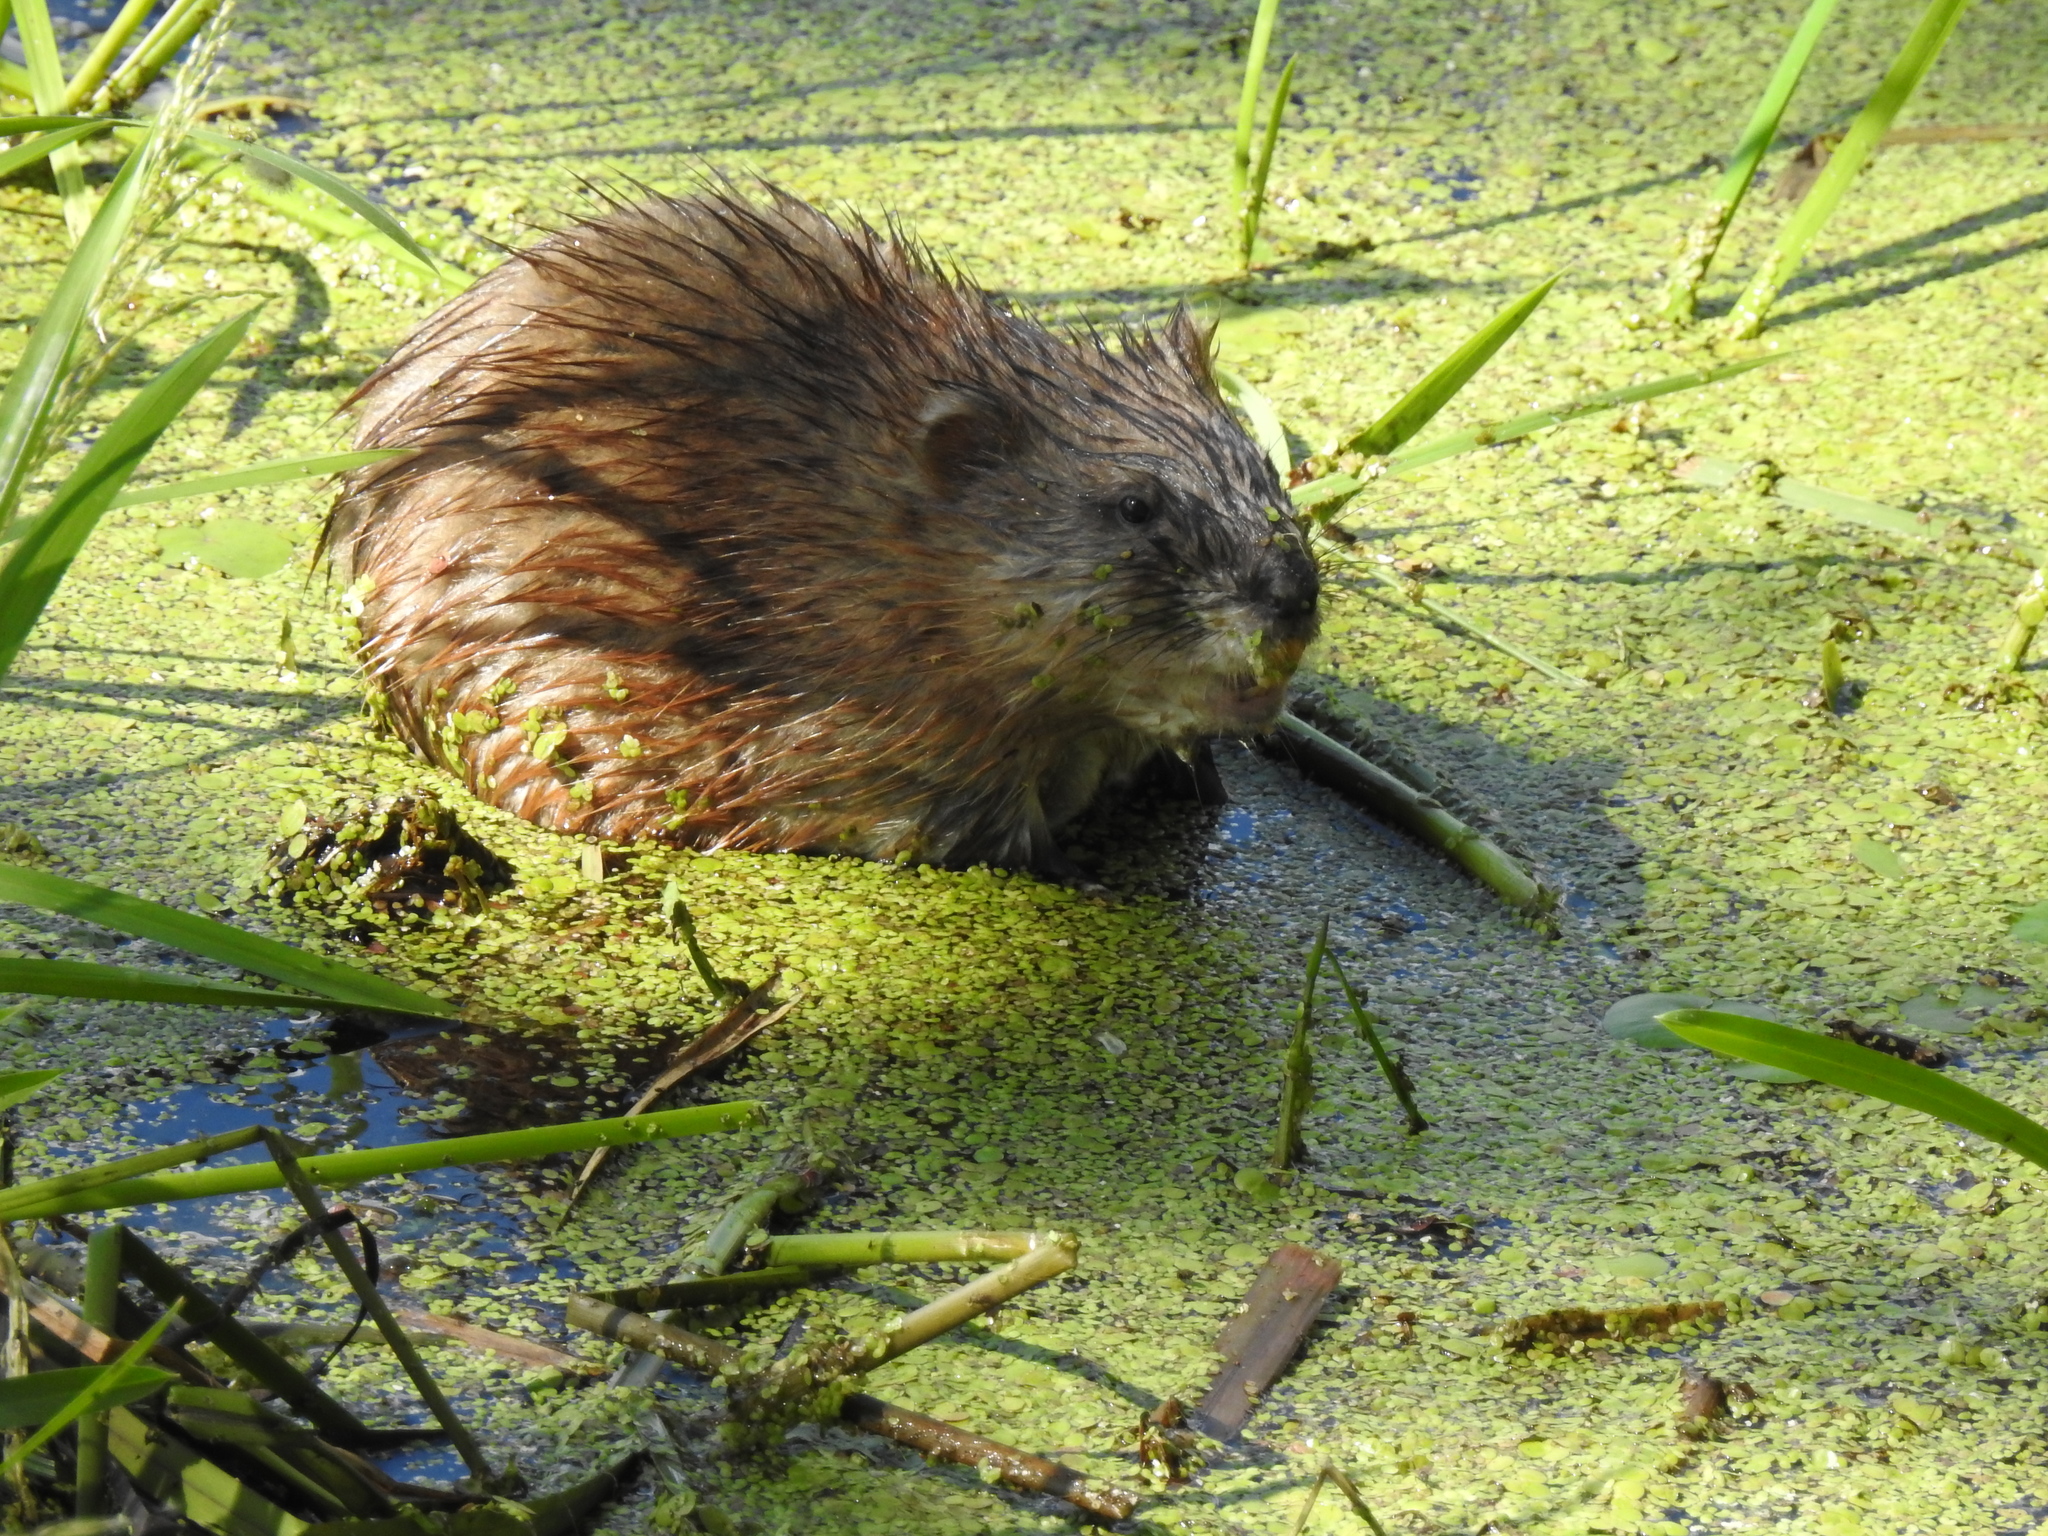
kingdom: Animalia
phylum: Chordata
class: Mammalia
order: Rodentia
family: Cricetidae
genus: Ondatra
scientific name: Ondatra zibethicus
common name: Muskrat
